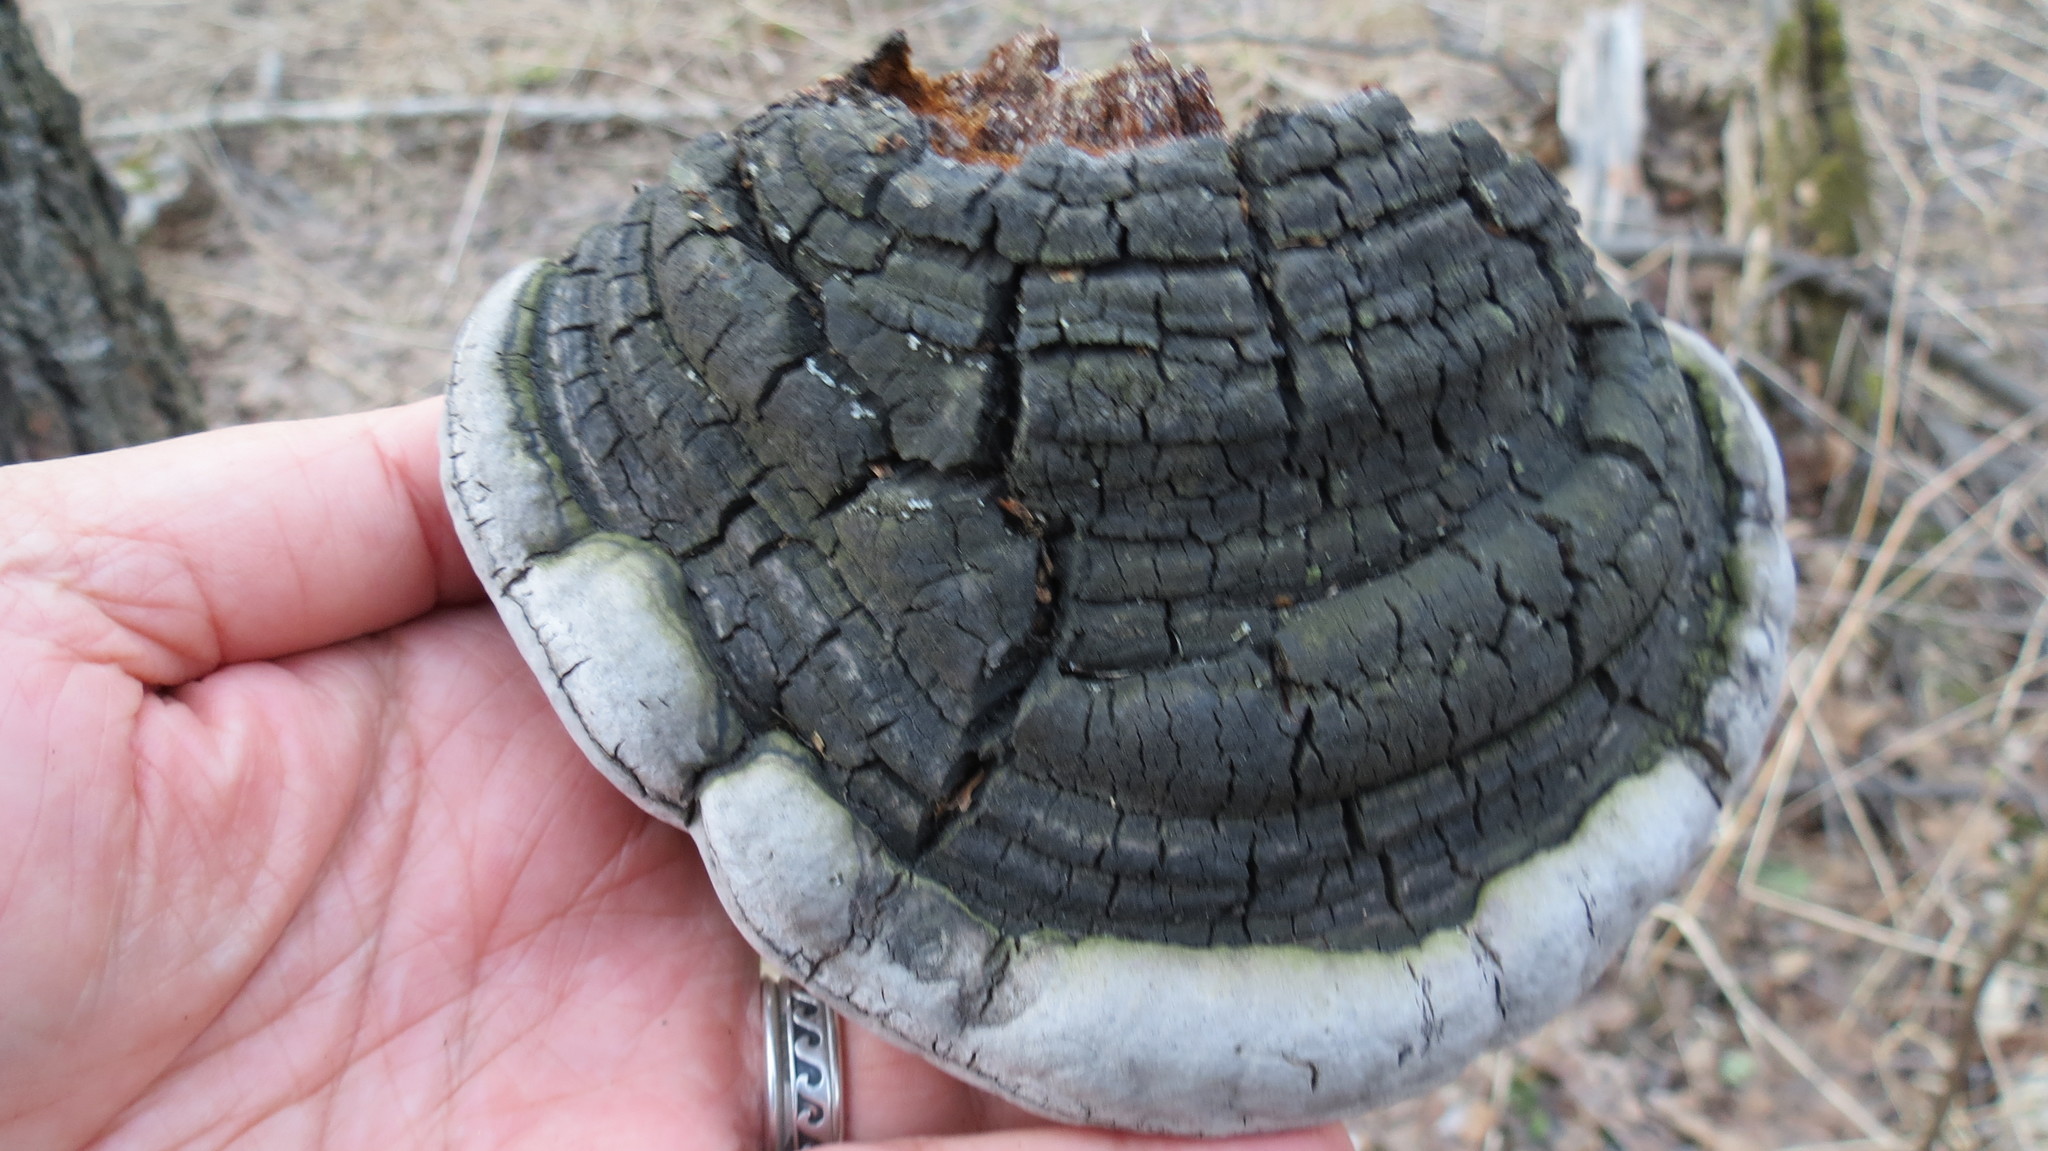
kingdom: Fungi
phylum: Basidiomycota
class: Agaricomycetes
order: Hymenochaetales
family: Hymenochaetaceae
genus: Phellinus
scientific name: Phellinus igniarius
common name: Willow bracket
